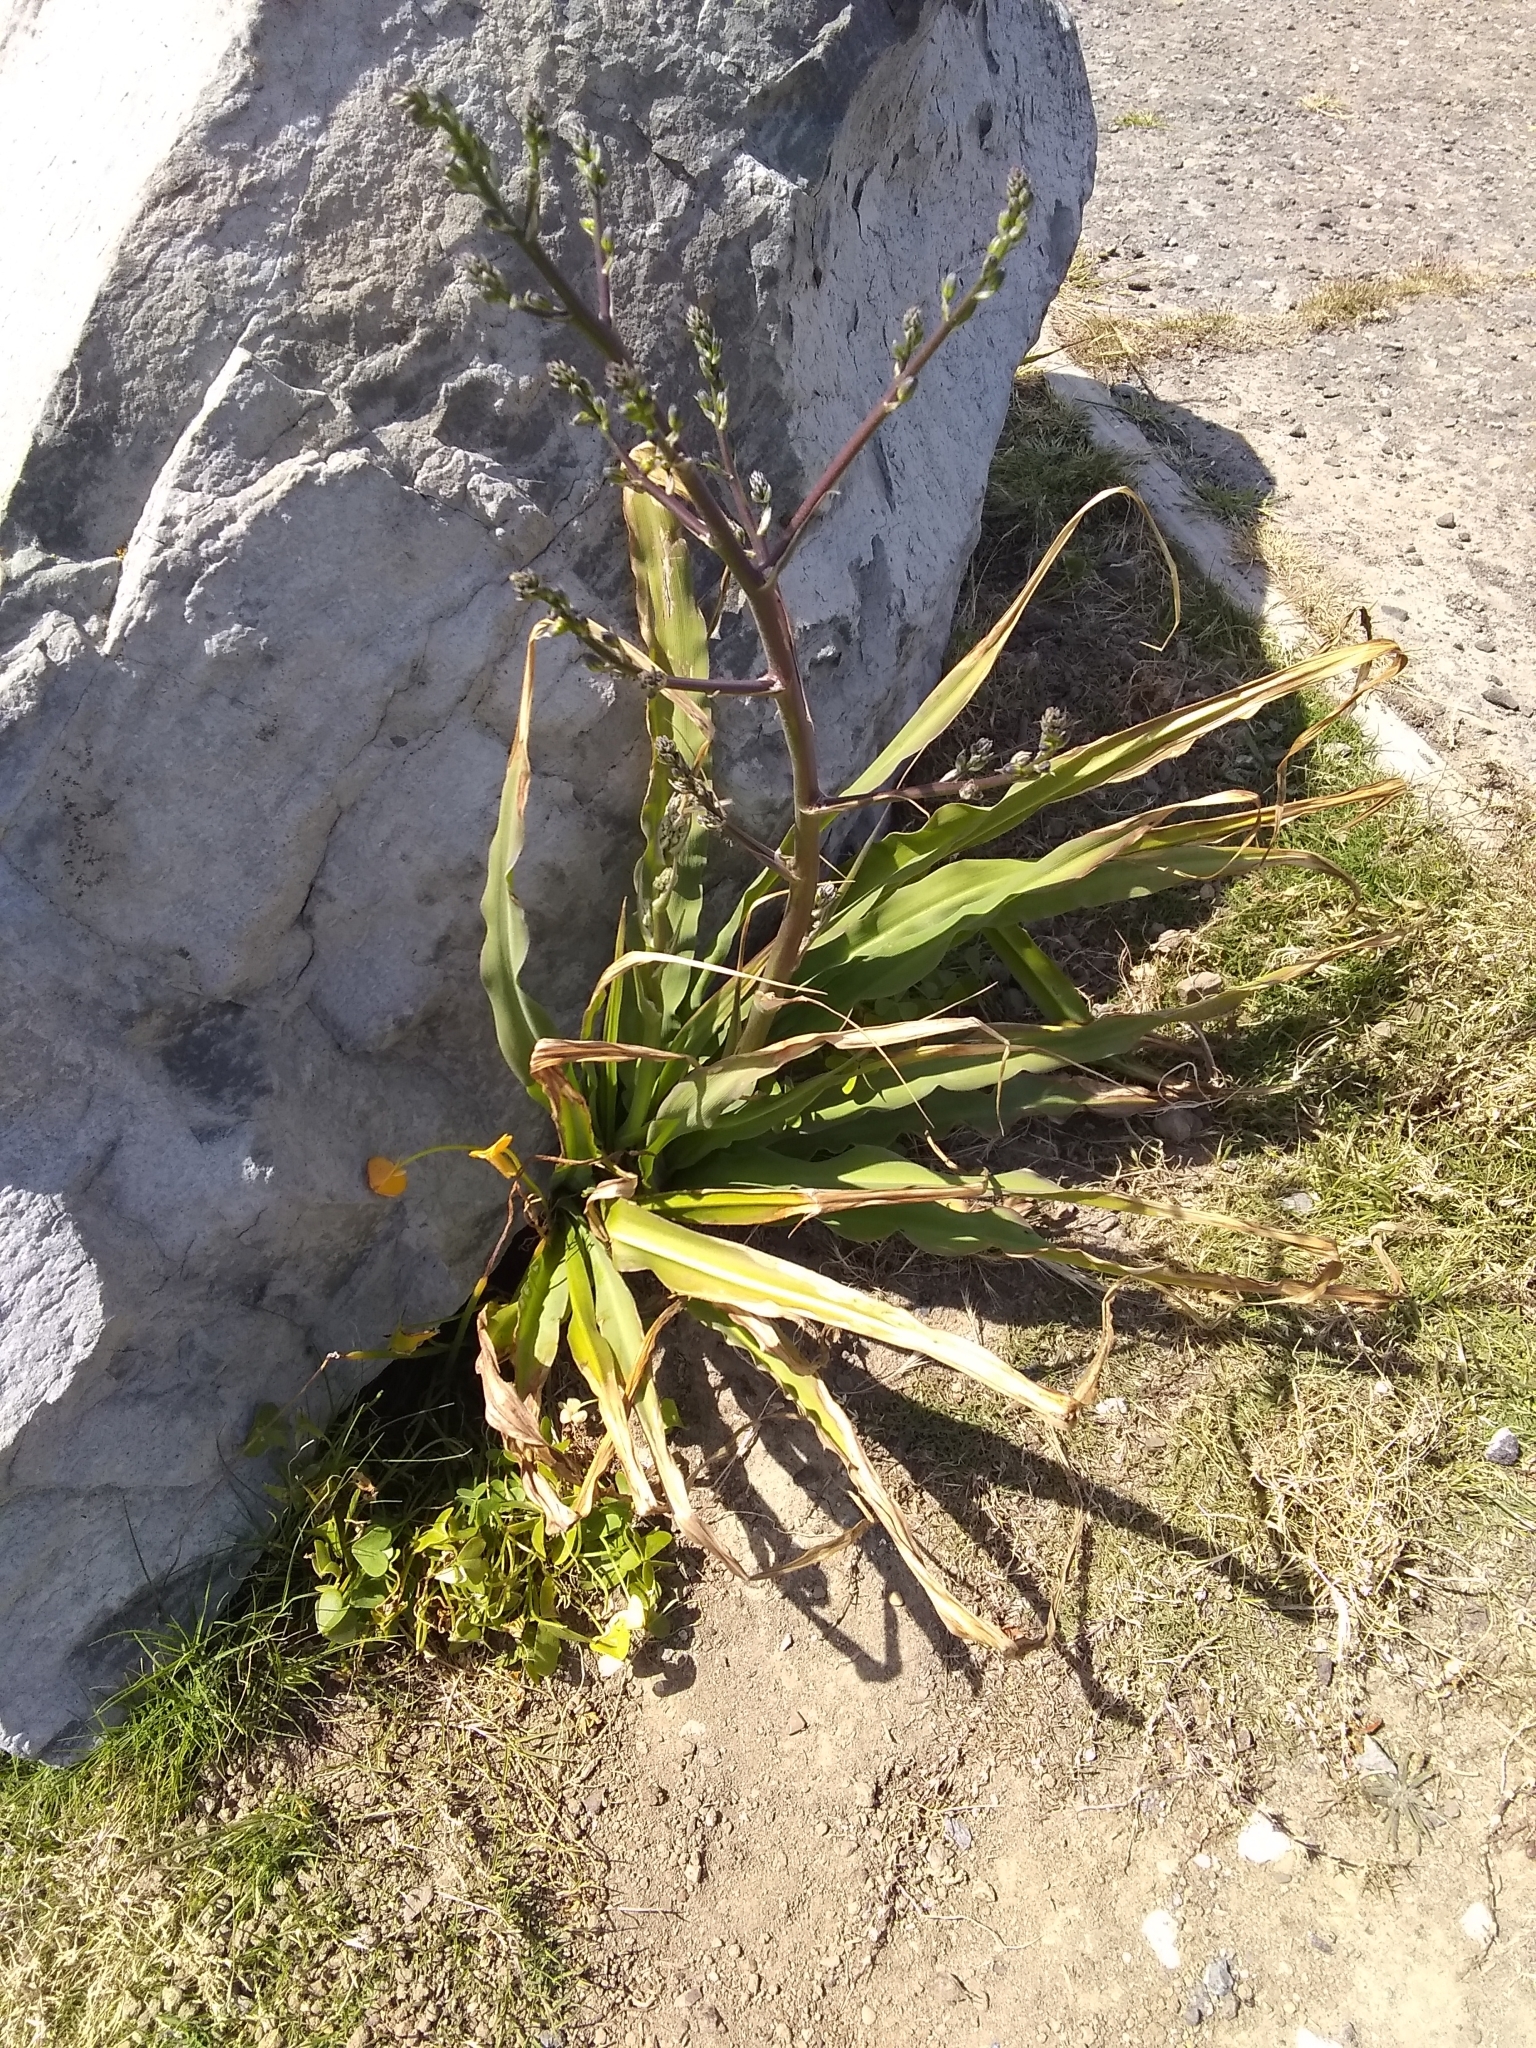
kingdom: Plantae
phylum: Tracheophyta
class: Liliopsida
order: Asparagales
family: Asparagaceae
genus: Chlorogalum
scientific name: Chlorogalum pomeridianum
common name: Amole
